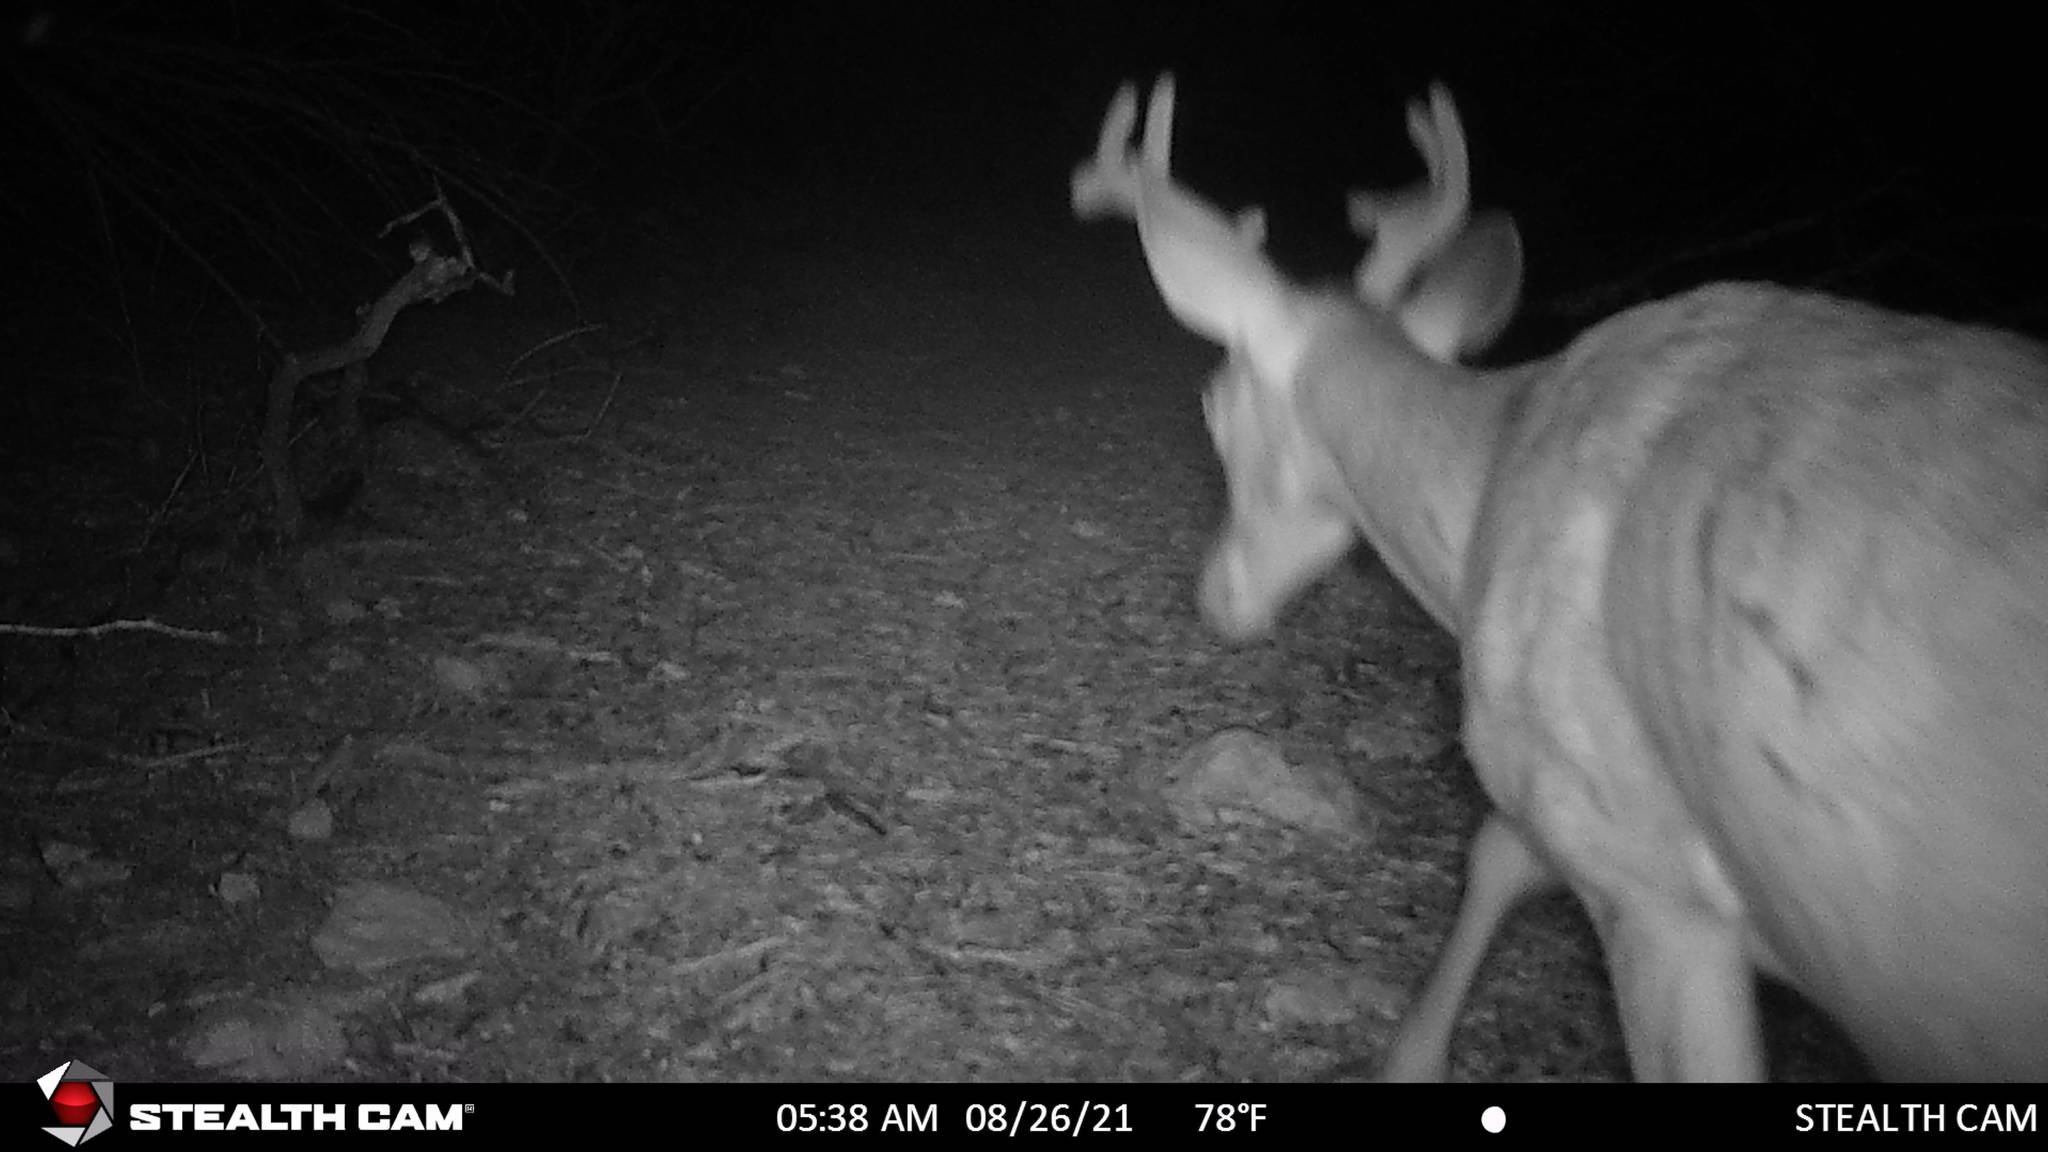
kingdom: Animalia
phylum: Chordata
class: Mammalia
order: Artiodactyla
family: Cervidae
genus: Odocoileus
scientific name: Odocoileus virginianus
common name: White-tailed deer
